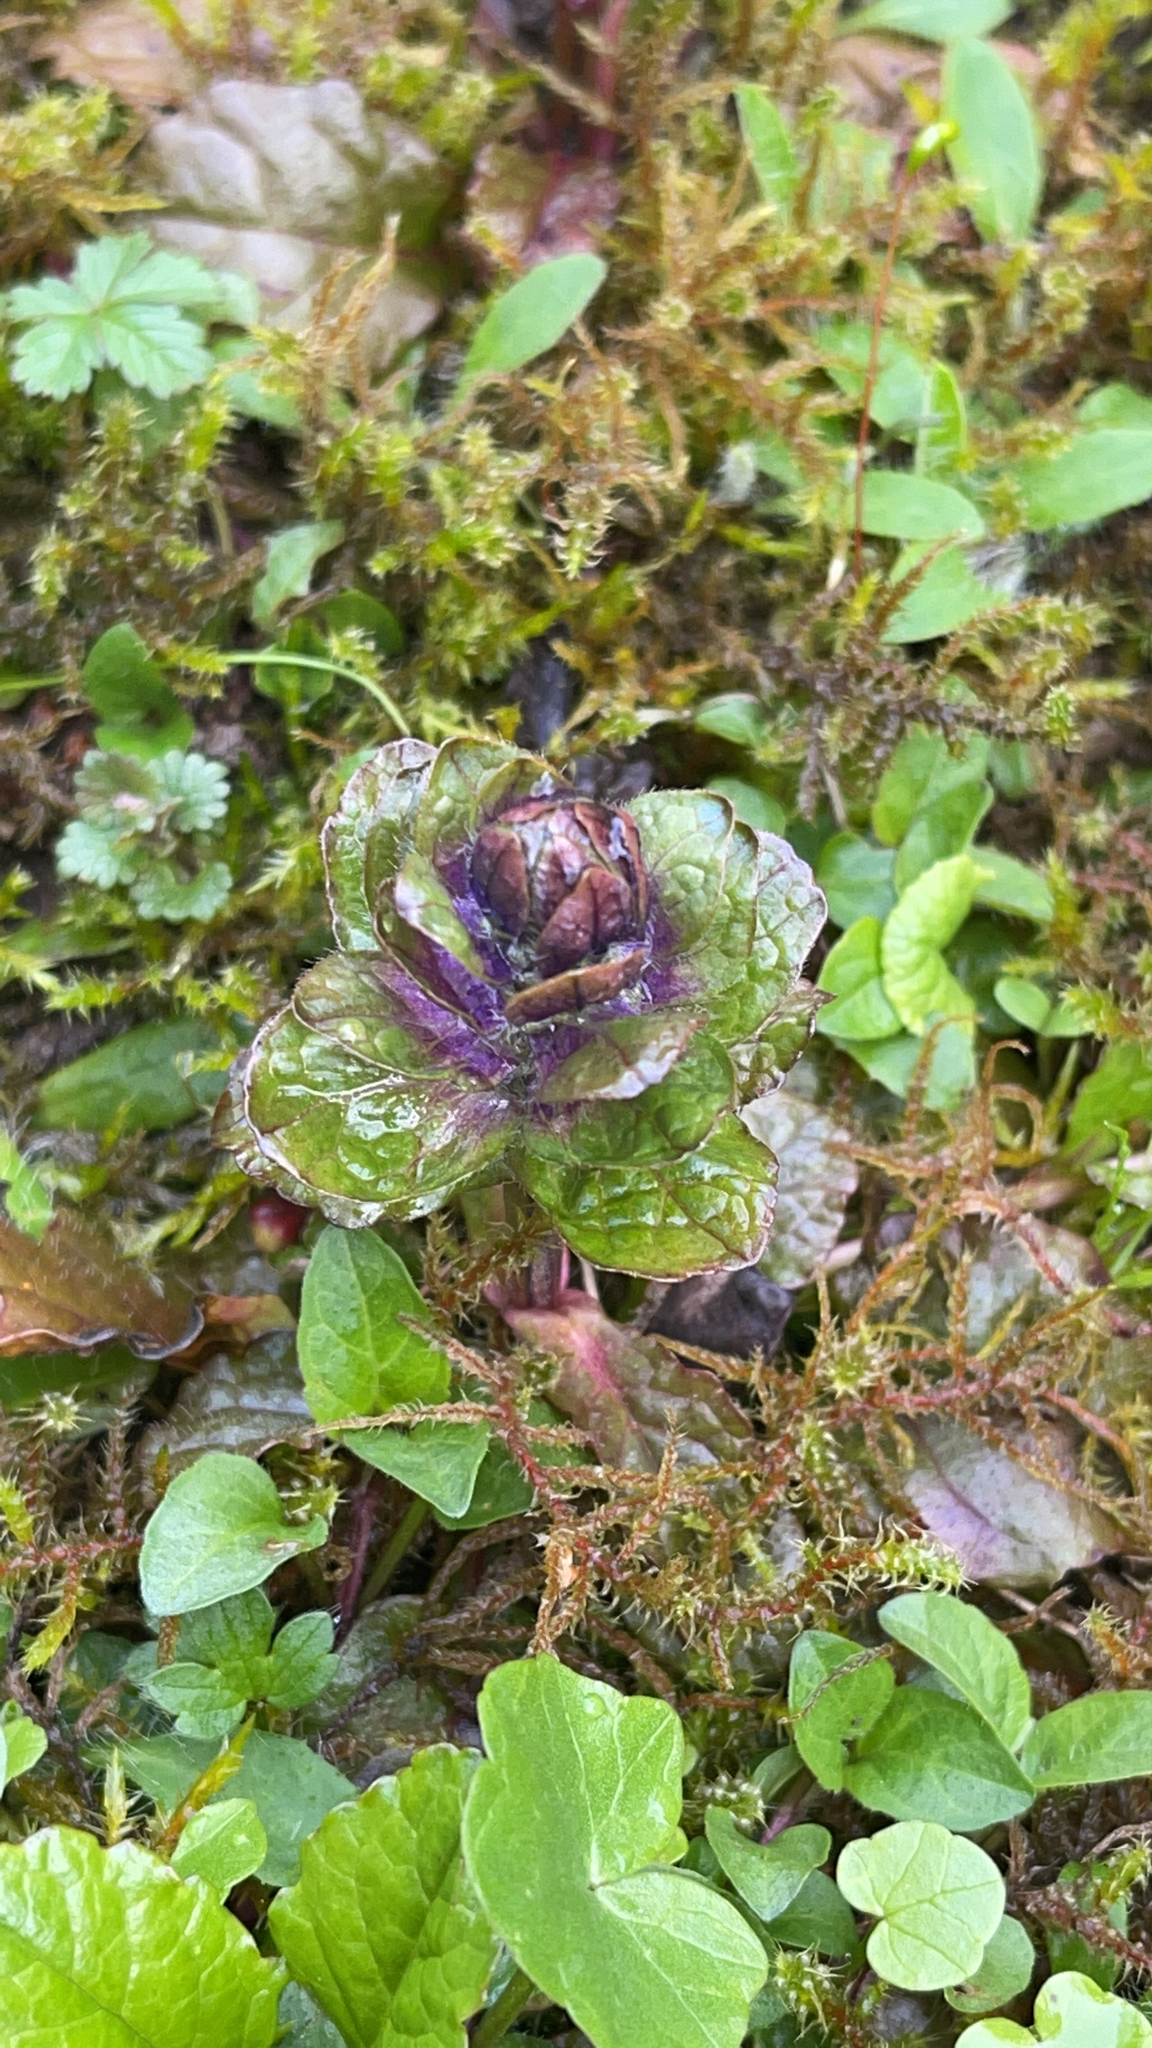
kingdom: Plantae
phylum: Tracheophyta
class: Magnoliopsida
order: Lamiales
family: Lamiaceae
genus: Ajuga
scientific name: Ajuga reptans
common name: Bugle
